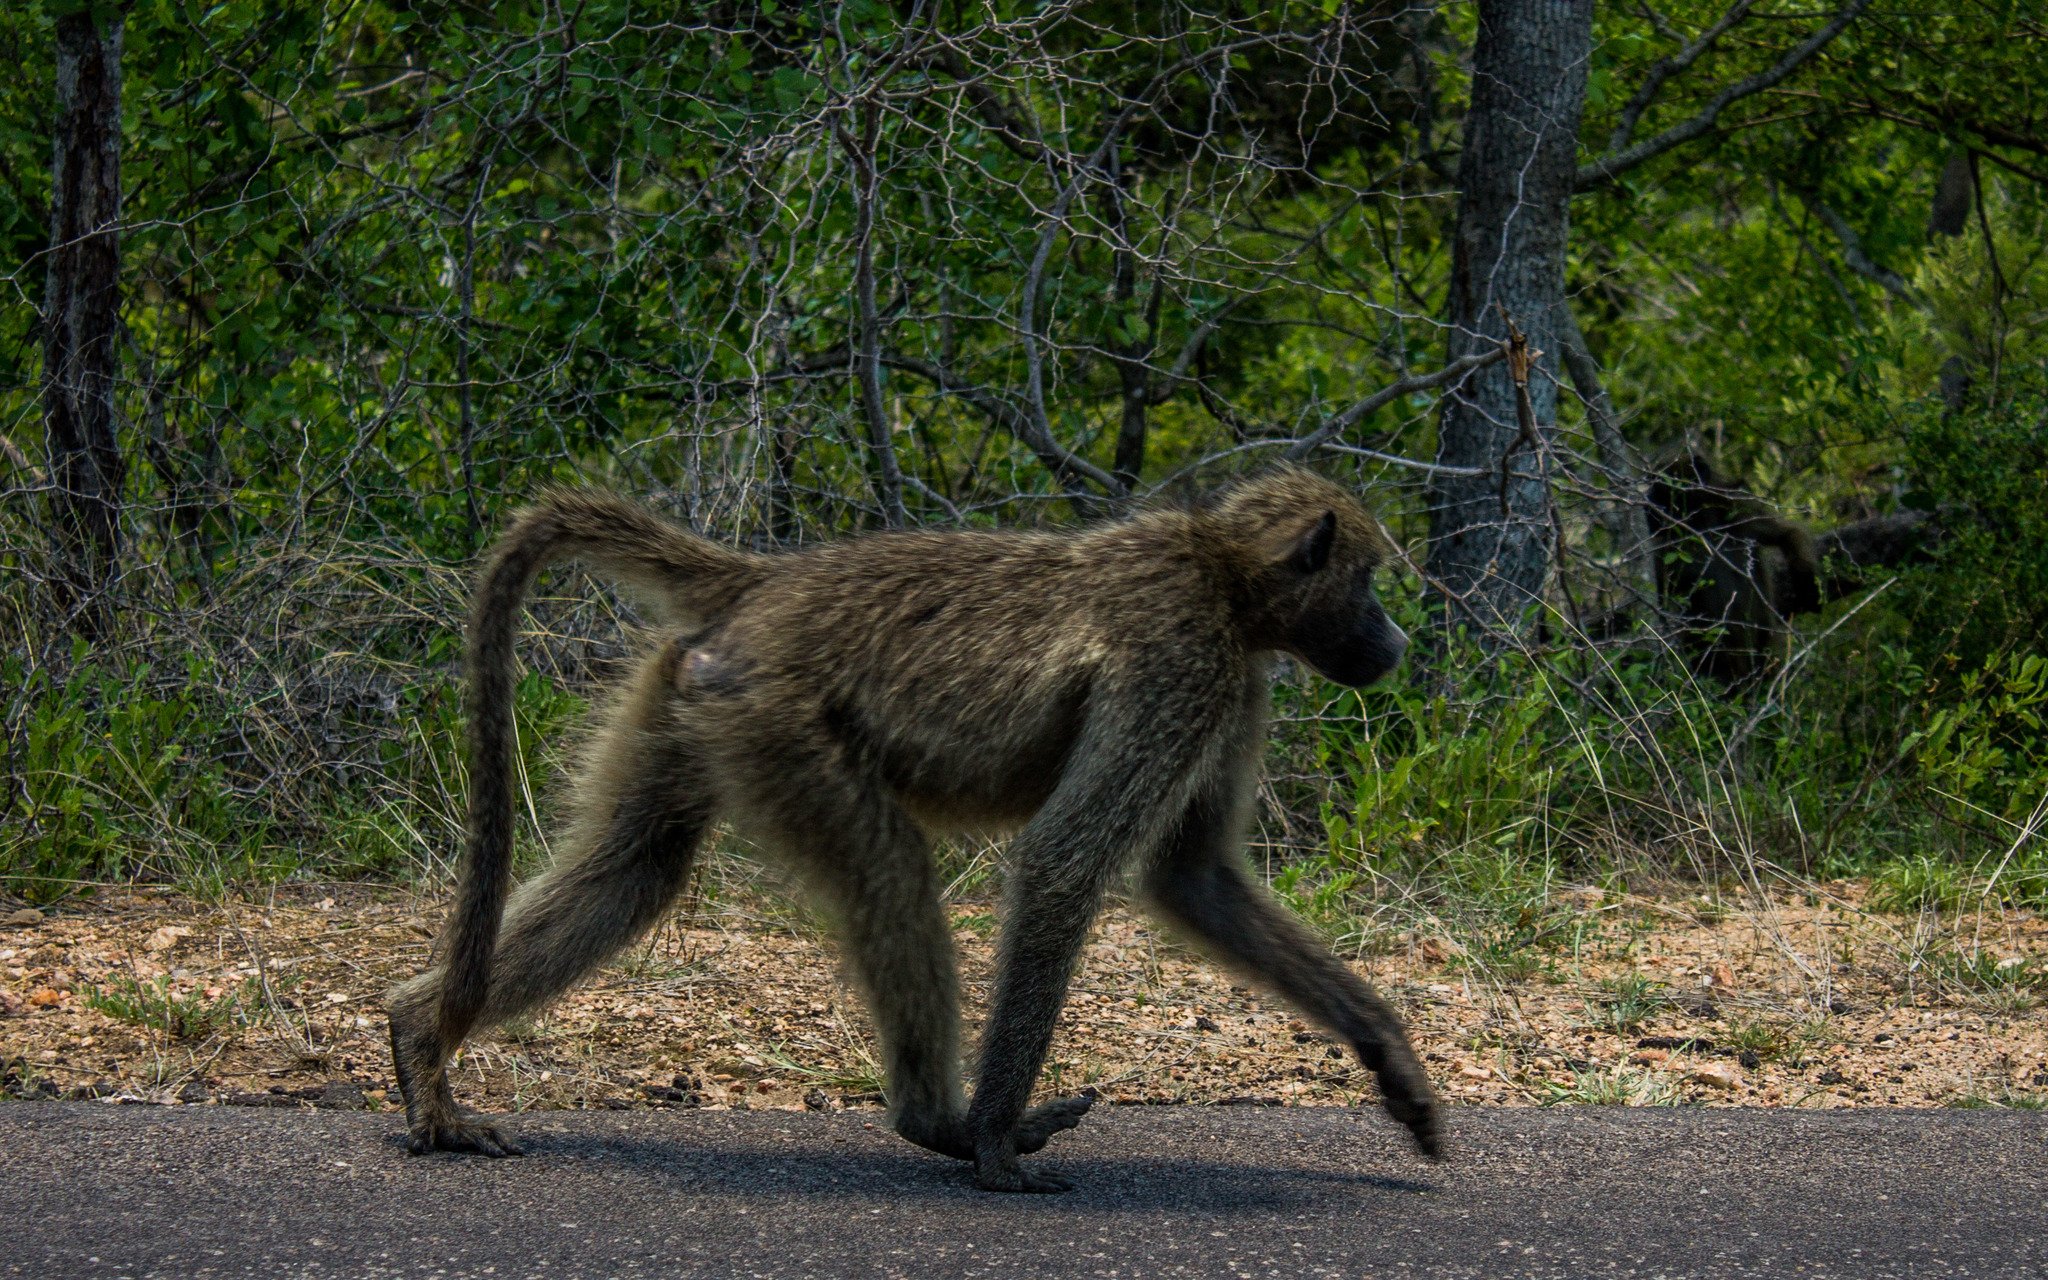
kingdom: Animalia
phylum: Chordata
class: Mammalia
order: Primates
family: Cercopithecidae
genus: Papio
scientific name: Papio ursinus
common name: Chacma baboon
